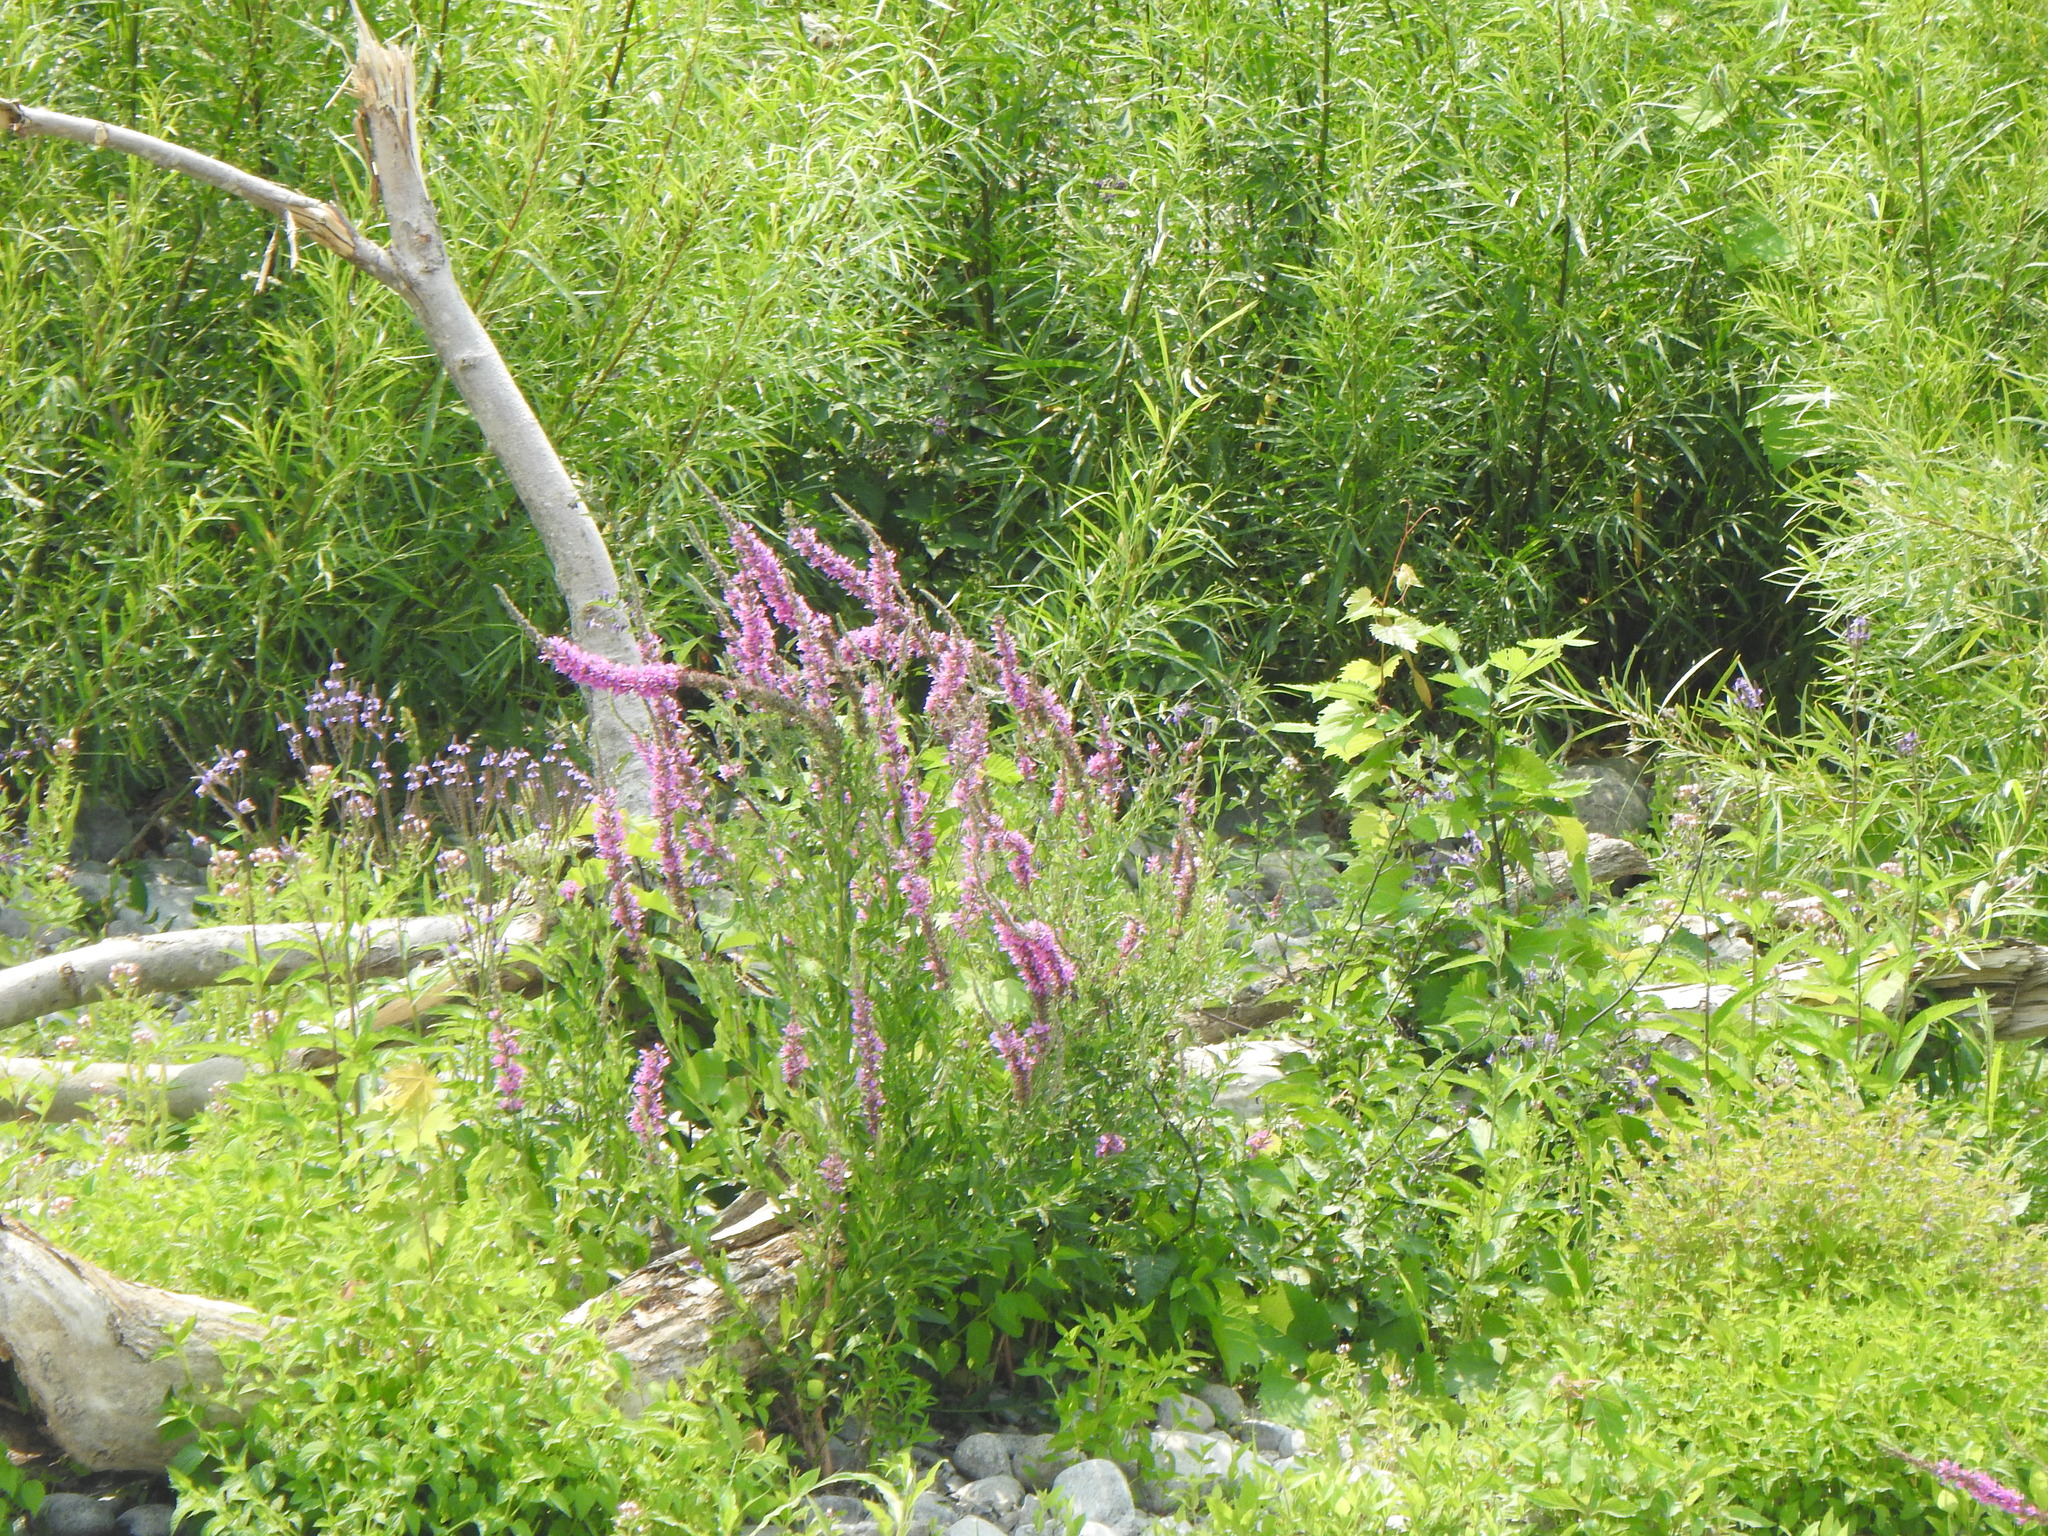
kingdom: Plantae
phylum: Tracheophyta
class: Magnoliopsida
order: Myrtales
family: Lythraceae
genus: Lythrum
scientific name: Lythrum salicaria
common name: Purple loosestrife
